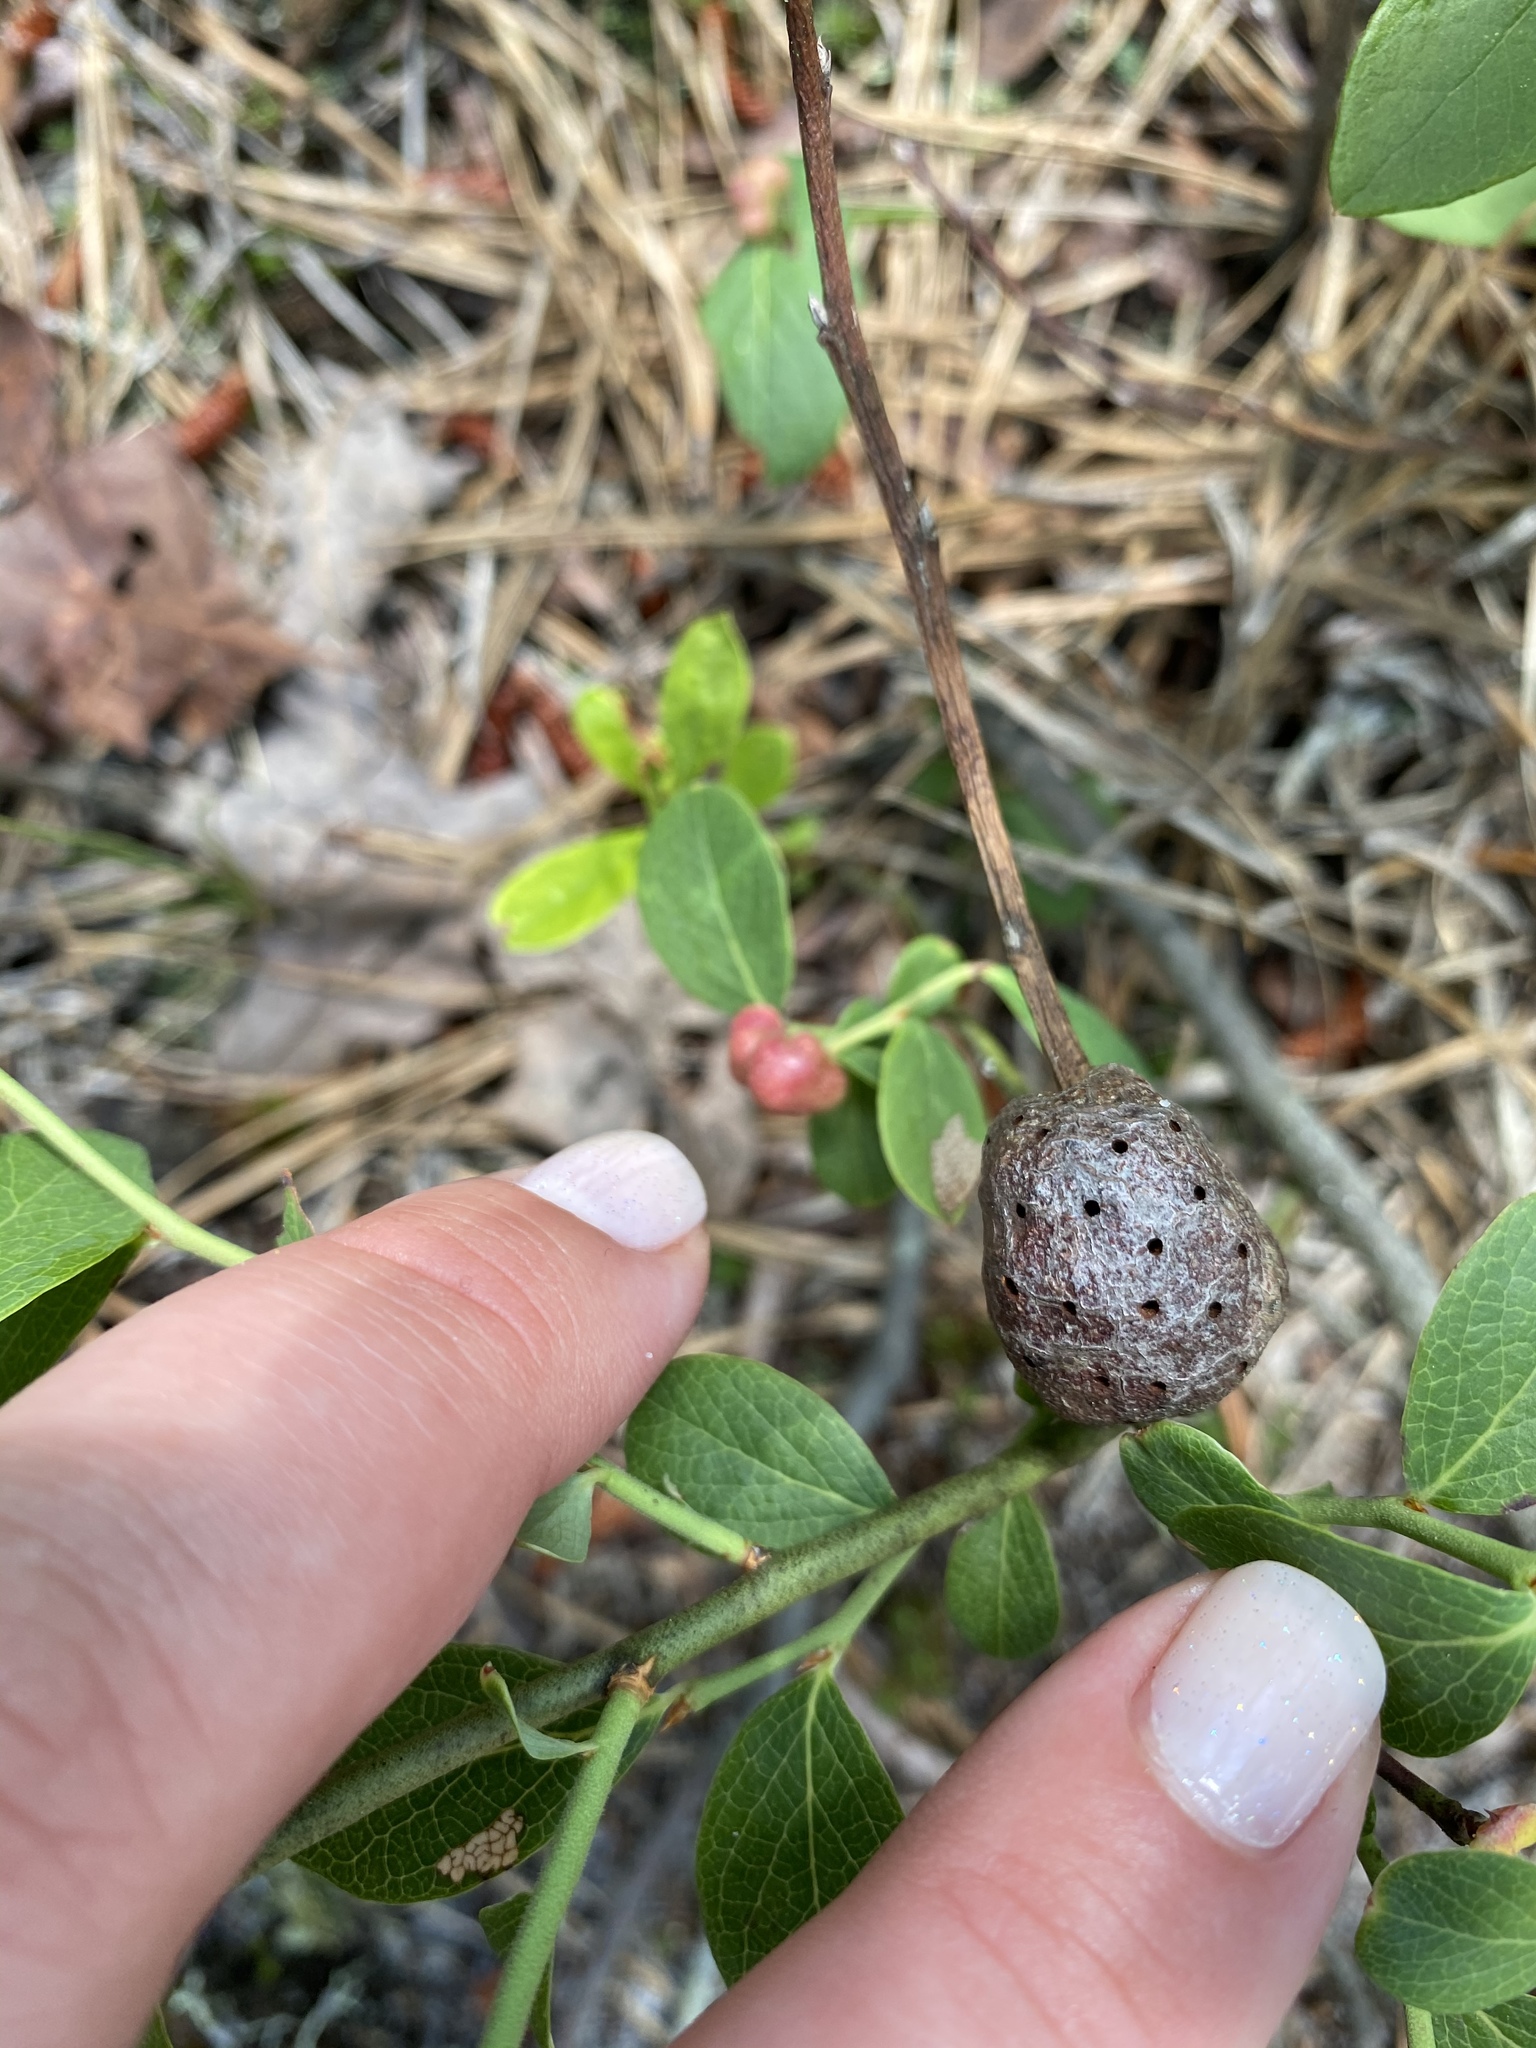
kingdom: Animalia
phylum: Arthropoda
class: Insecta
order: Hymenoptera
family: Pteromalidae
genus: Hemadas
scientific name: Hemadas nubilipennis
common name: Blueberry stem gall wasp
